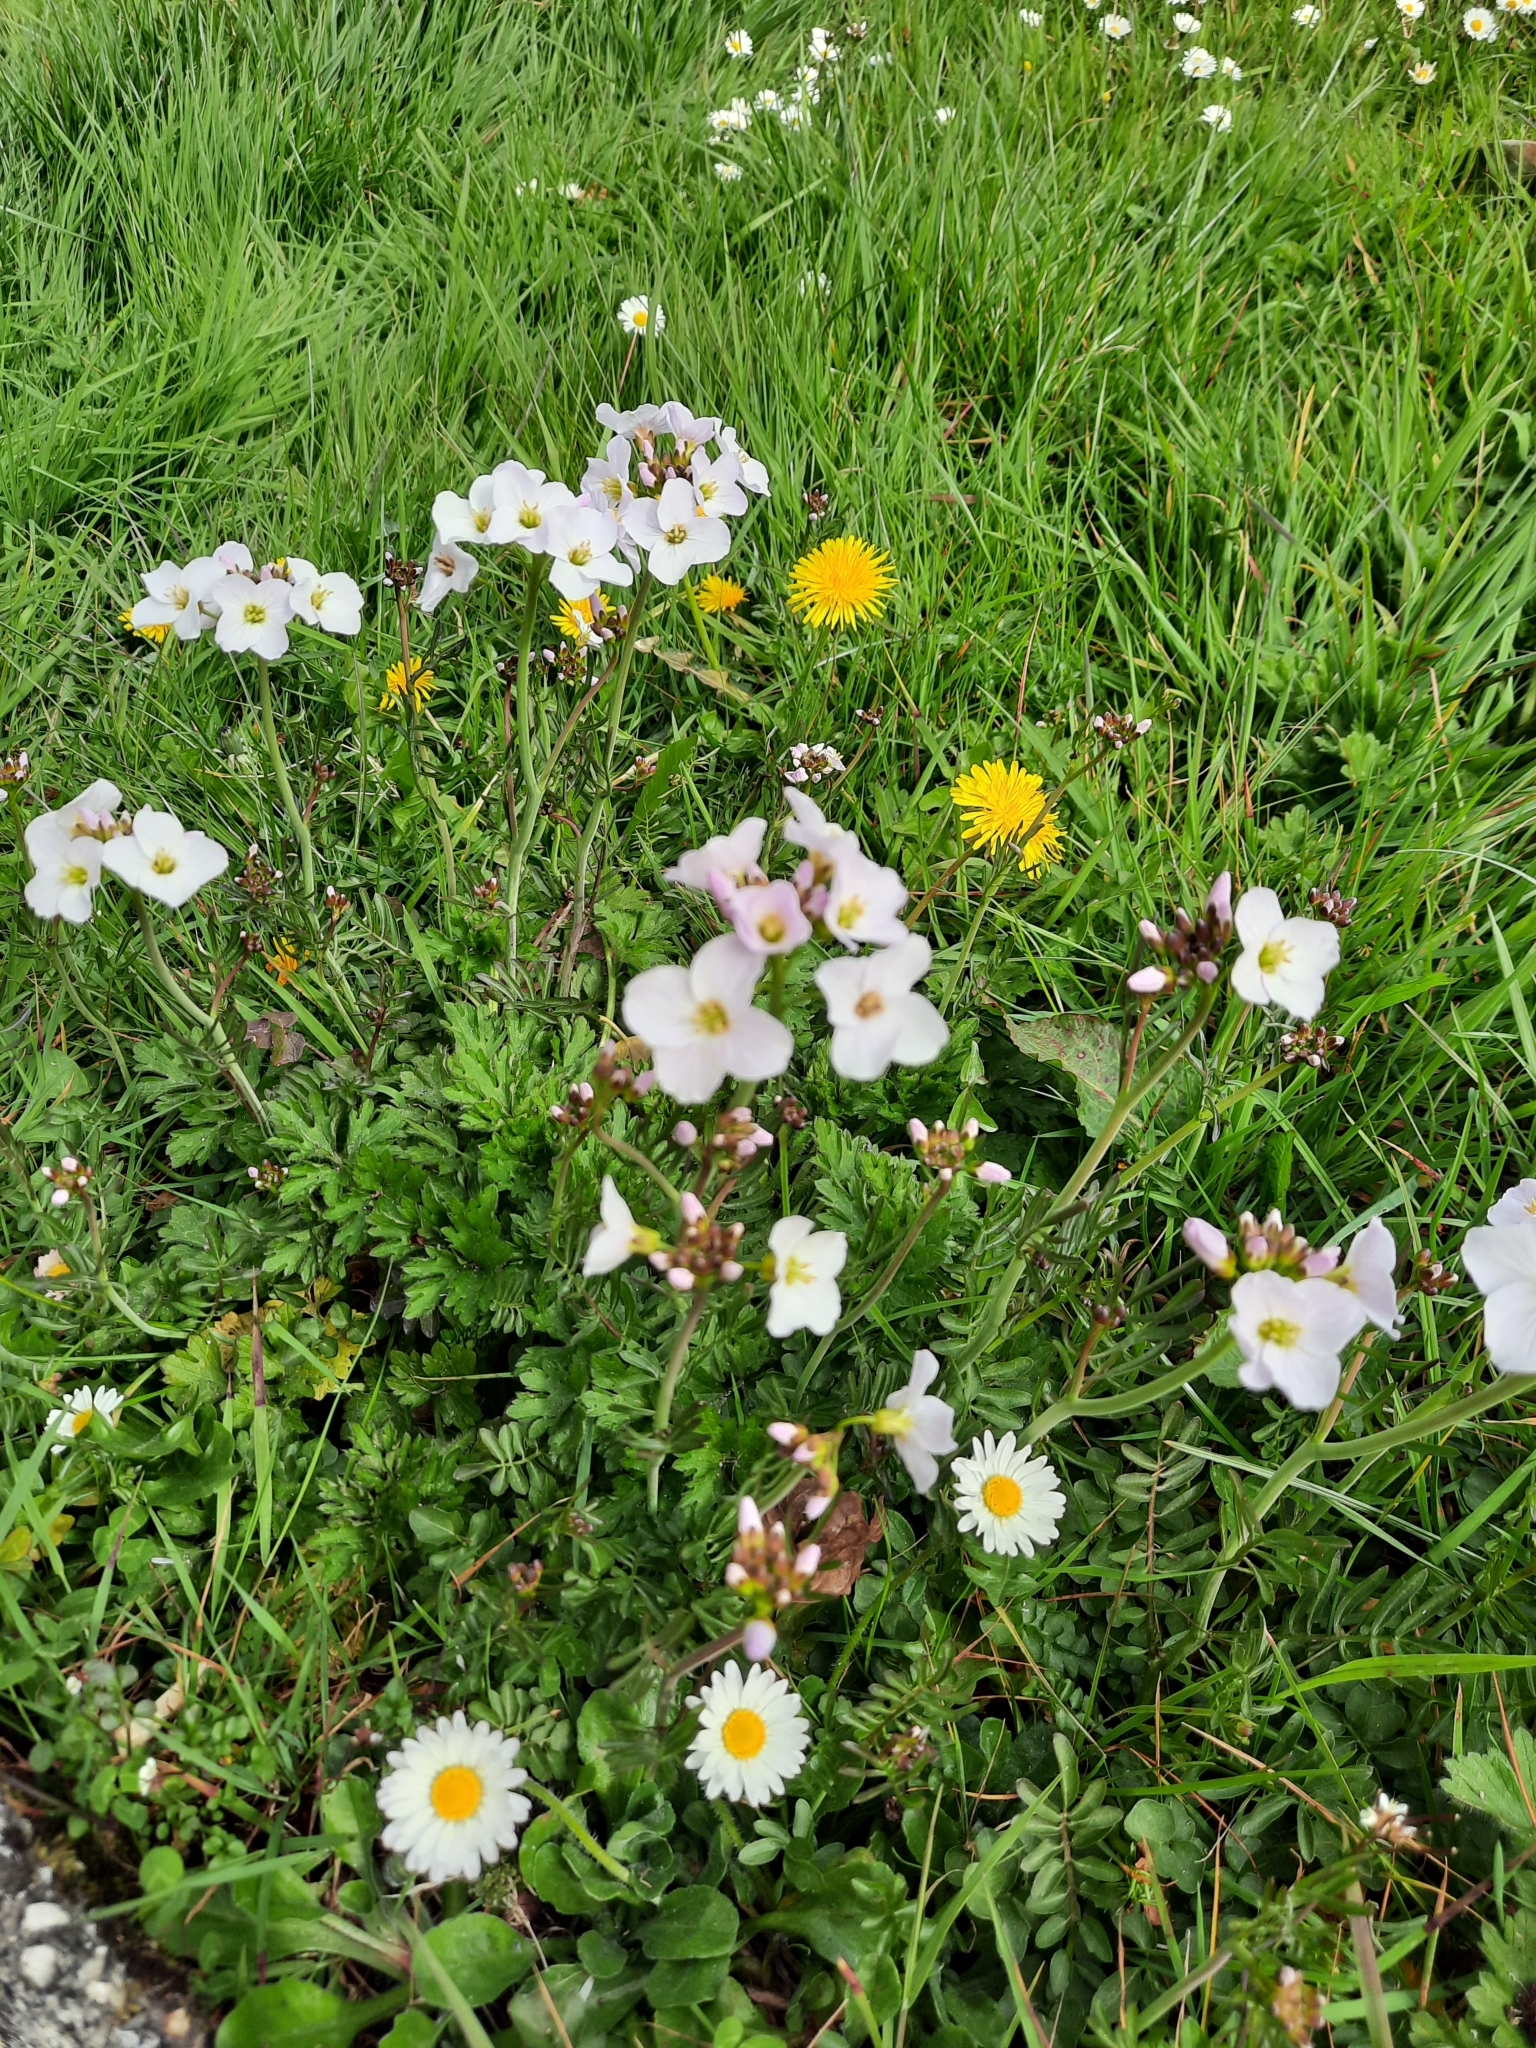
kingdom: Plantae
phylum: Tracheophyta
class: Magnoliopsida
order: Brassicales
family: Brassicaceae
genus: Cardamine
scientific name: Cardamine pratensis
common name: Cuckoo flower
